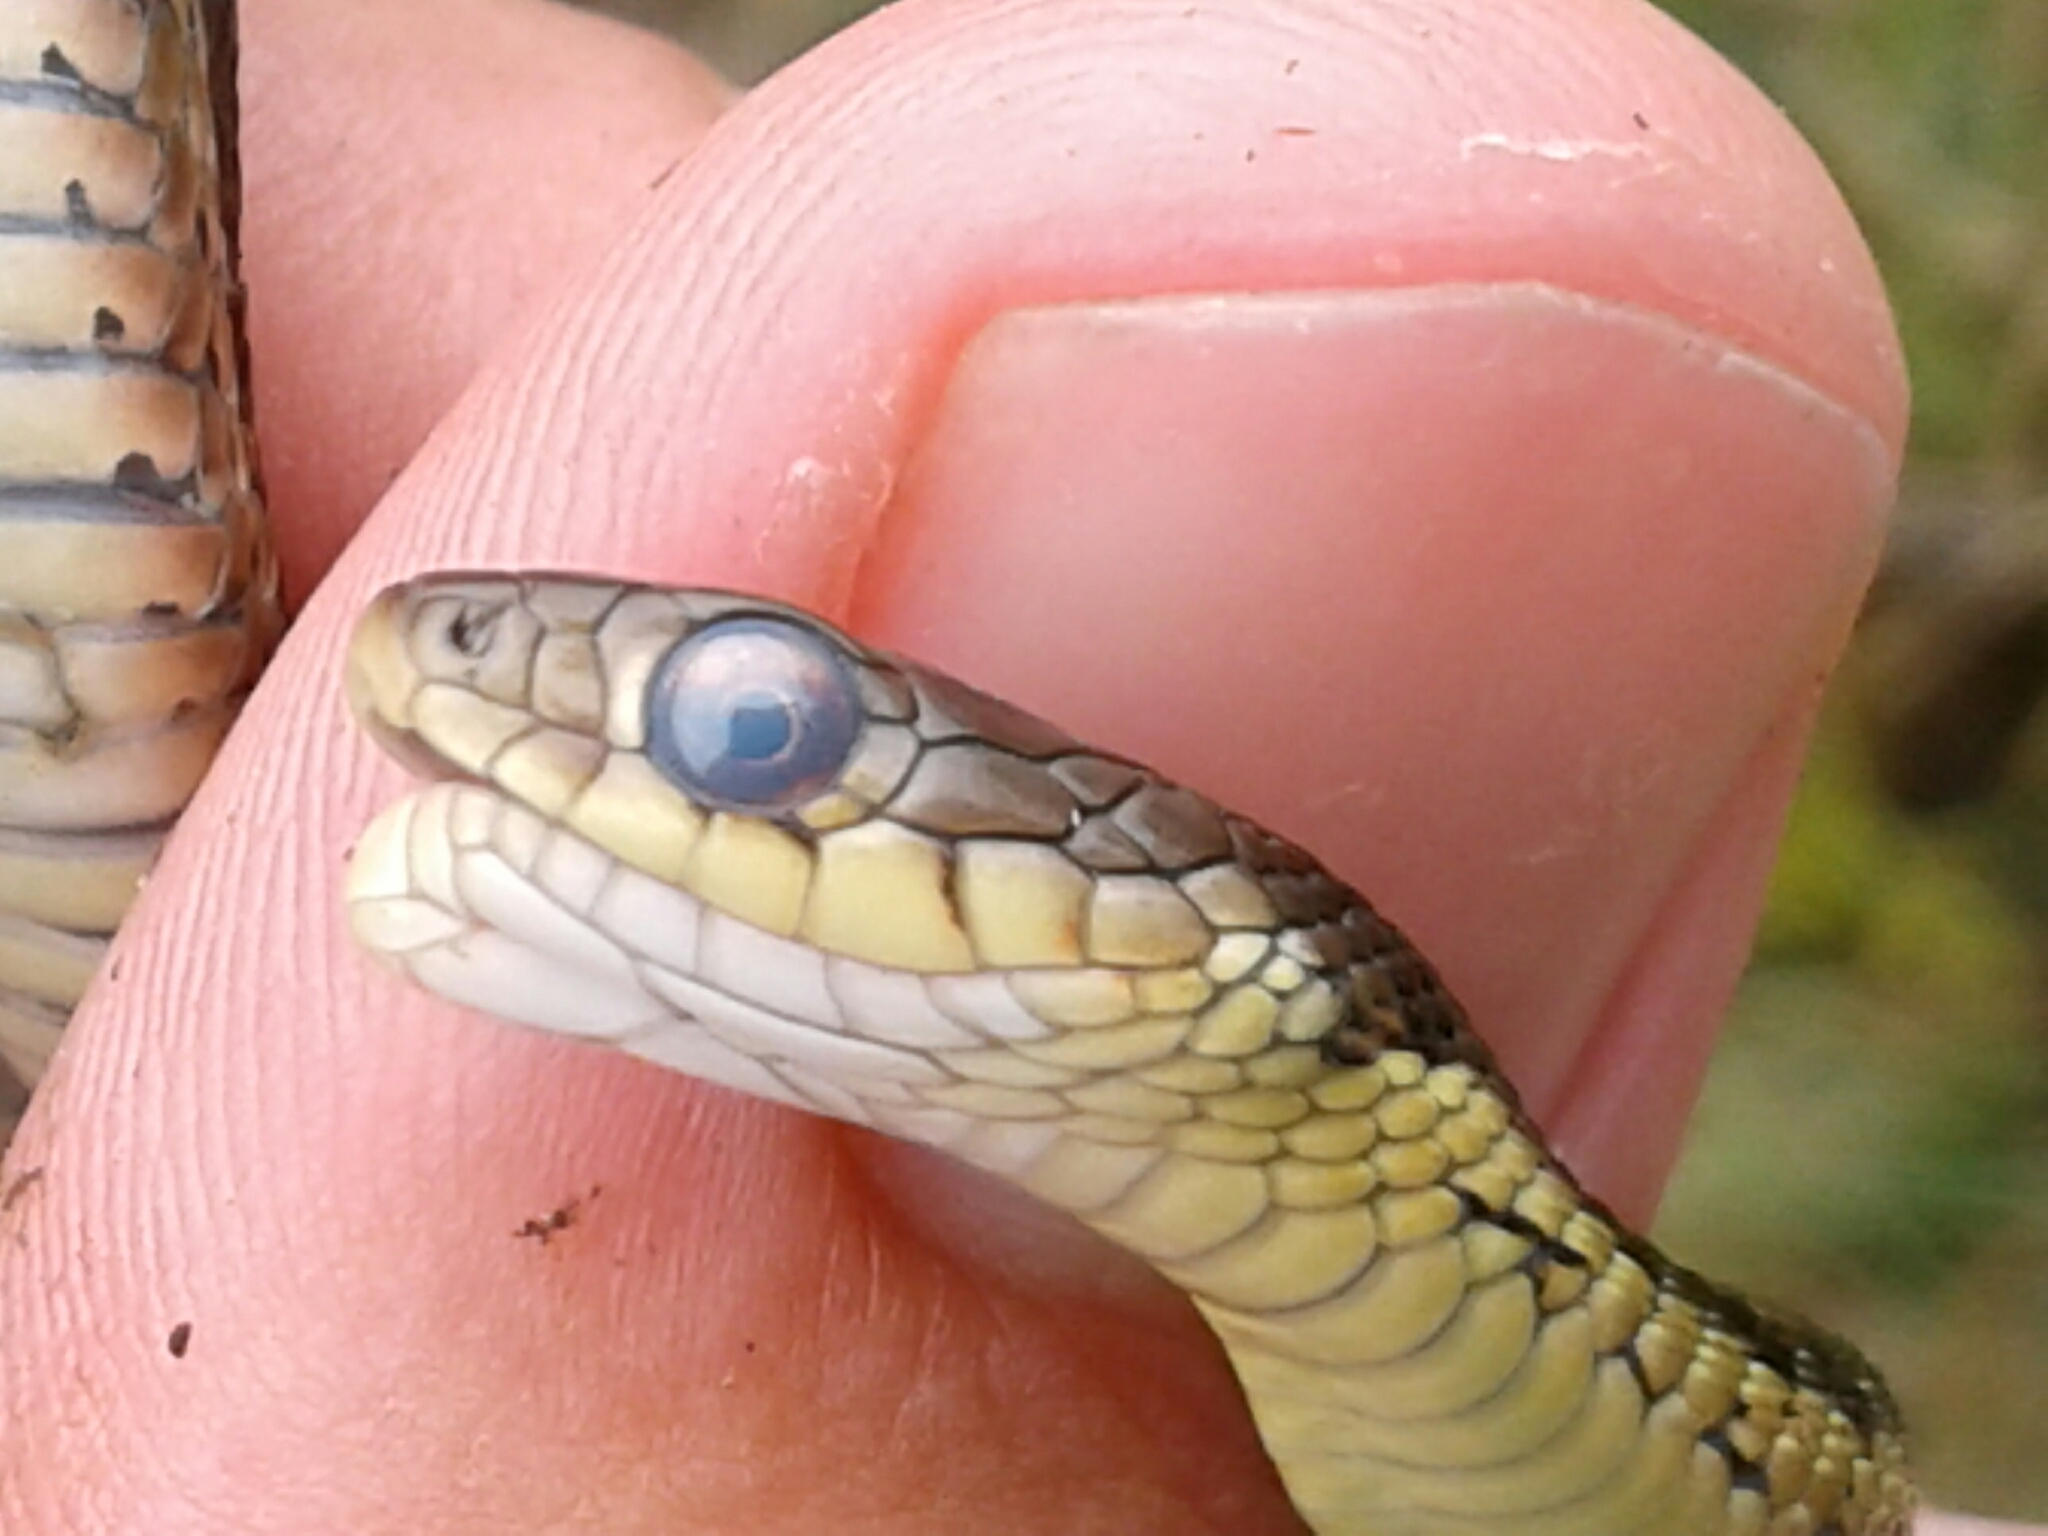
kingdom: Animalia
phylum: Chordata
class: Squamata
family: Colubridae
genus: Thamnophis
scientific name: Thamnophis sirtalis
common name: Common garter snake
